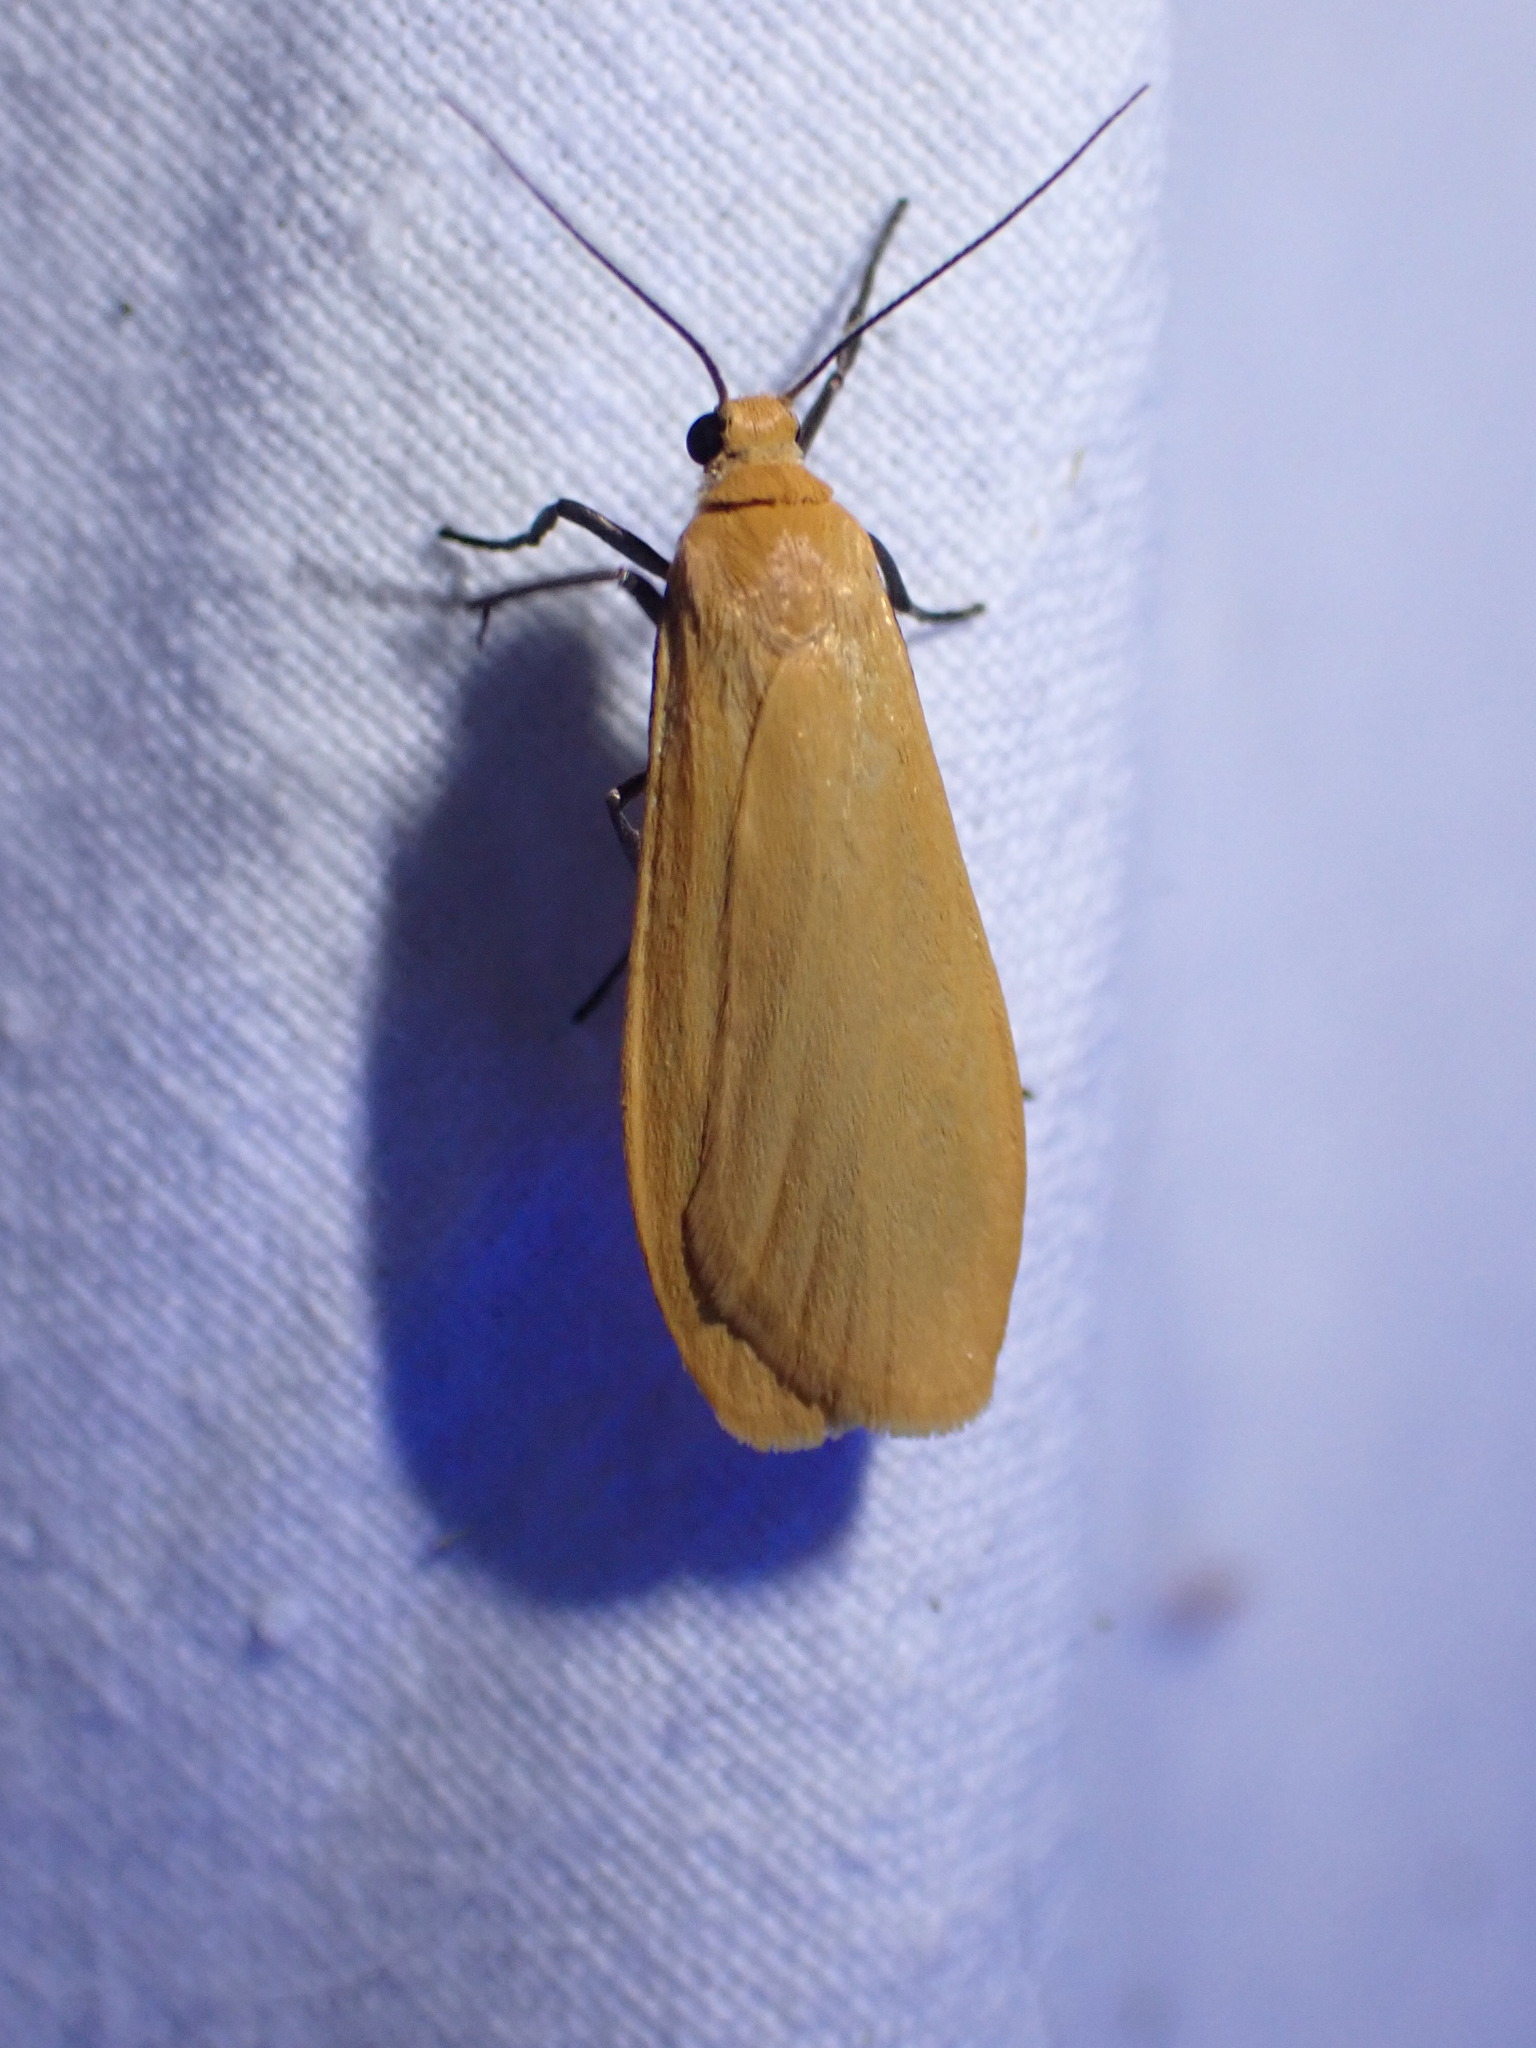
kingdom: Animalia
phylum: Arthropoda
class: Insecta
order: Lepidoptera
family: Erebidae
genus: Wittia
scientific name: Wittia sororcula
